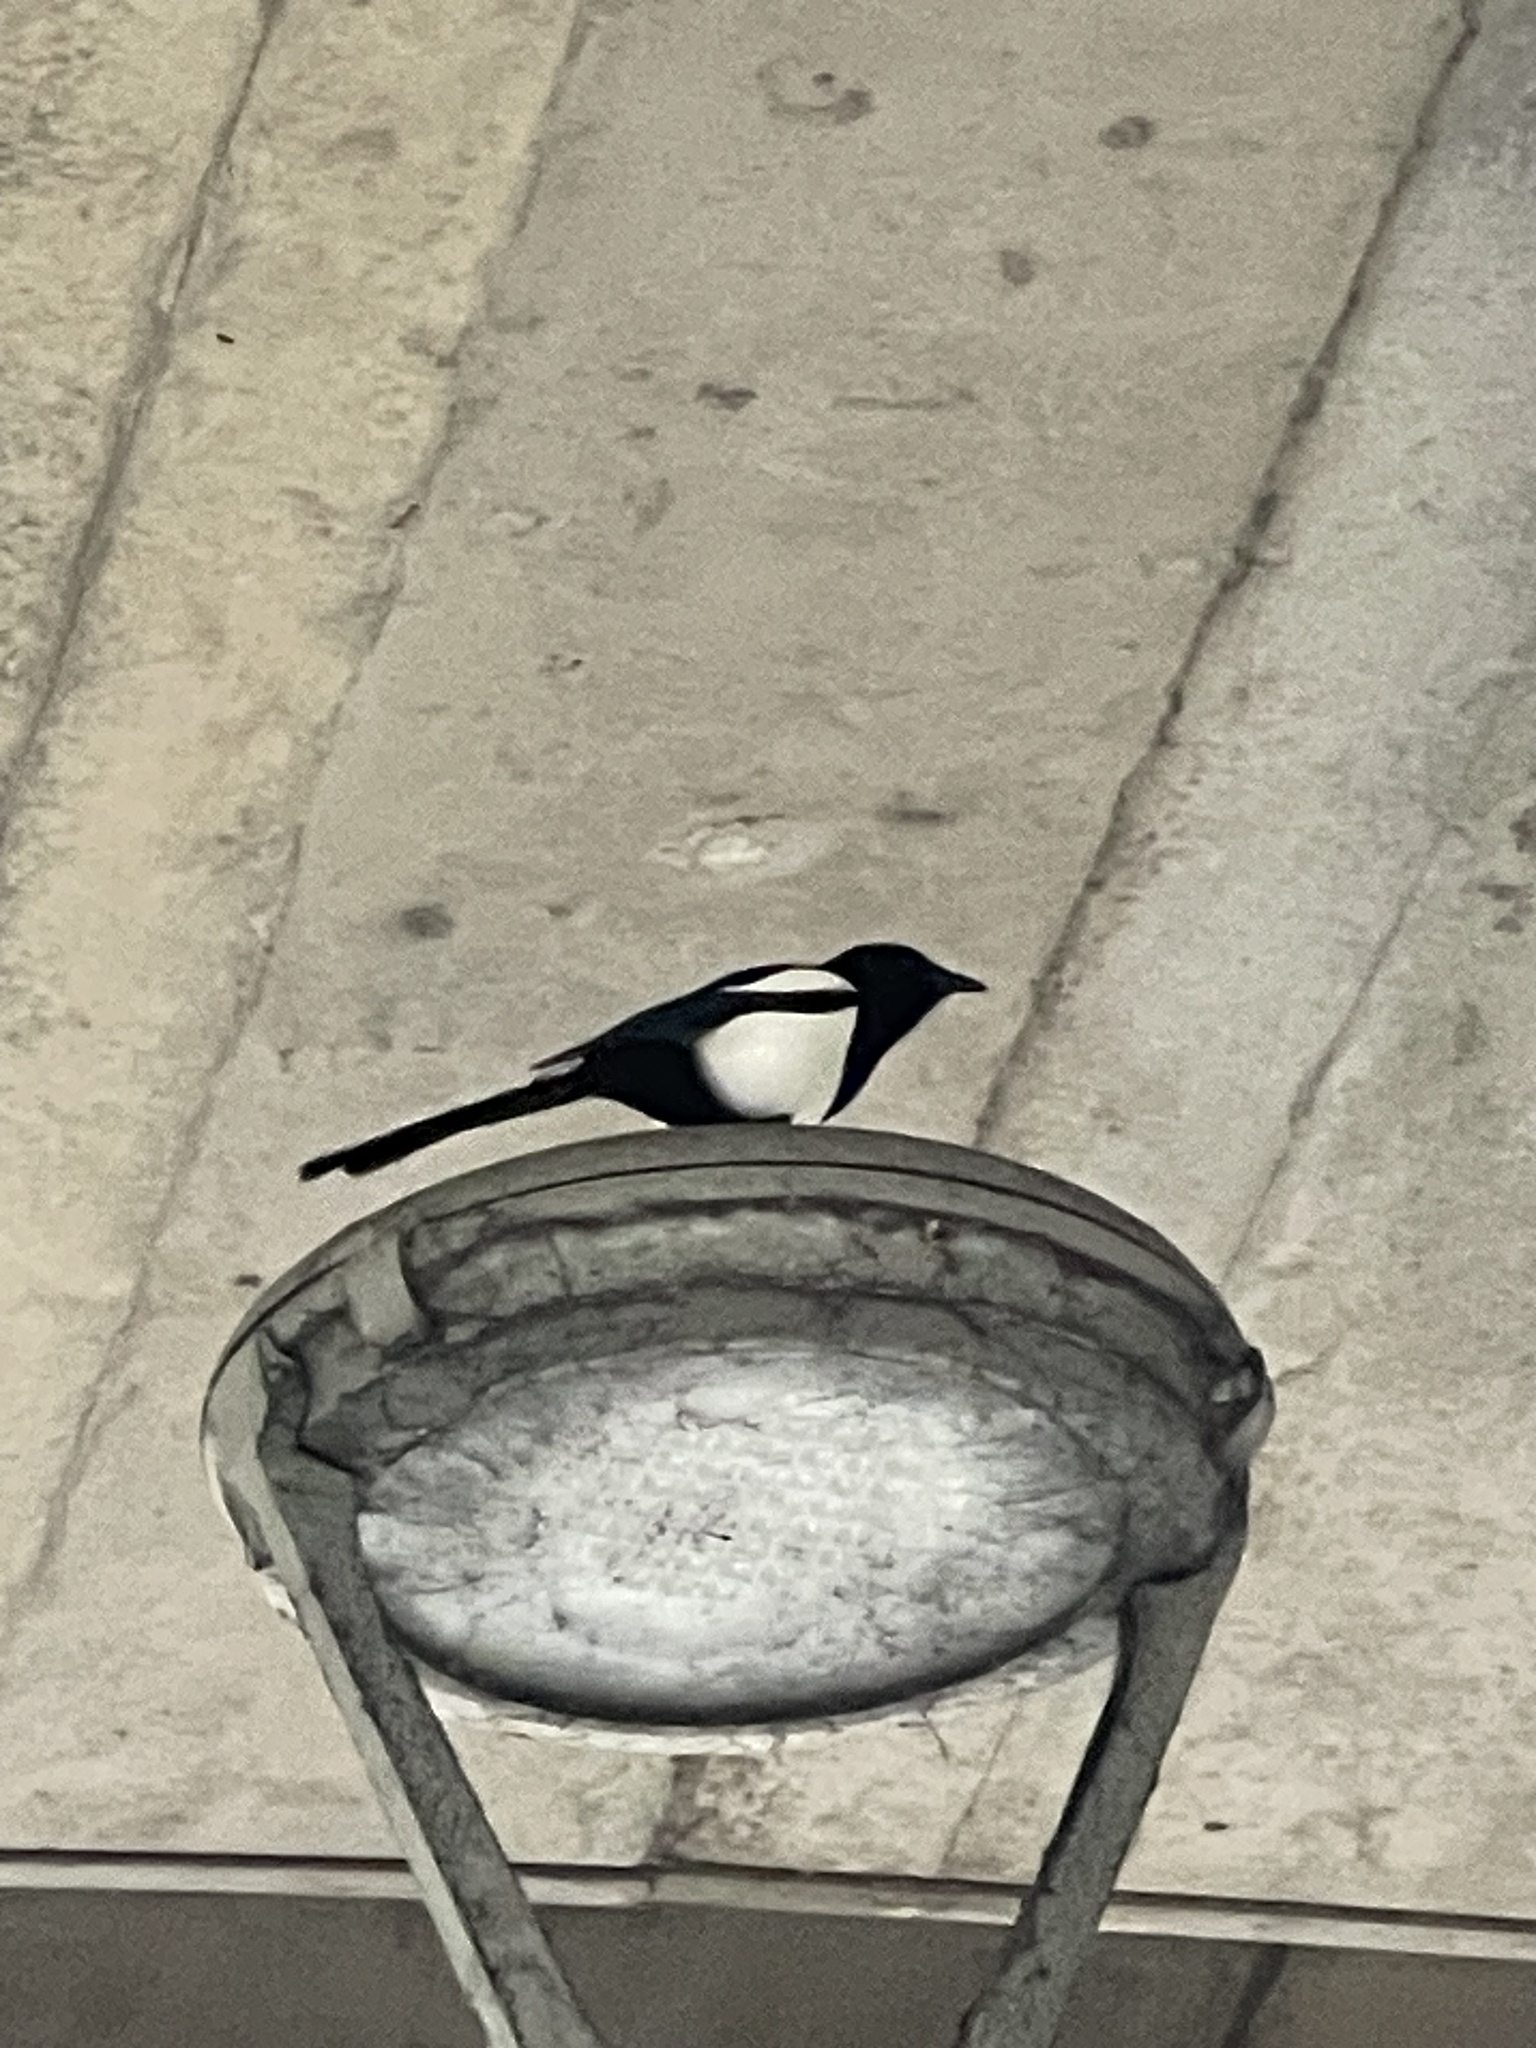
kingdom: Animalia
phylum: Chordata
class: Aves
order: Passeriformes
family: Corvidae
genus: Pica
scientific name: Pica pica
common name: Eurasian magpie
